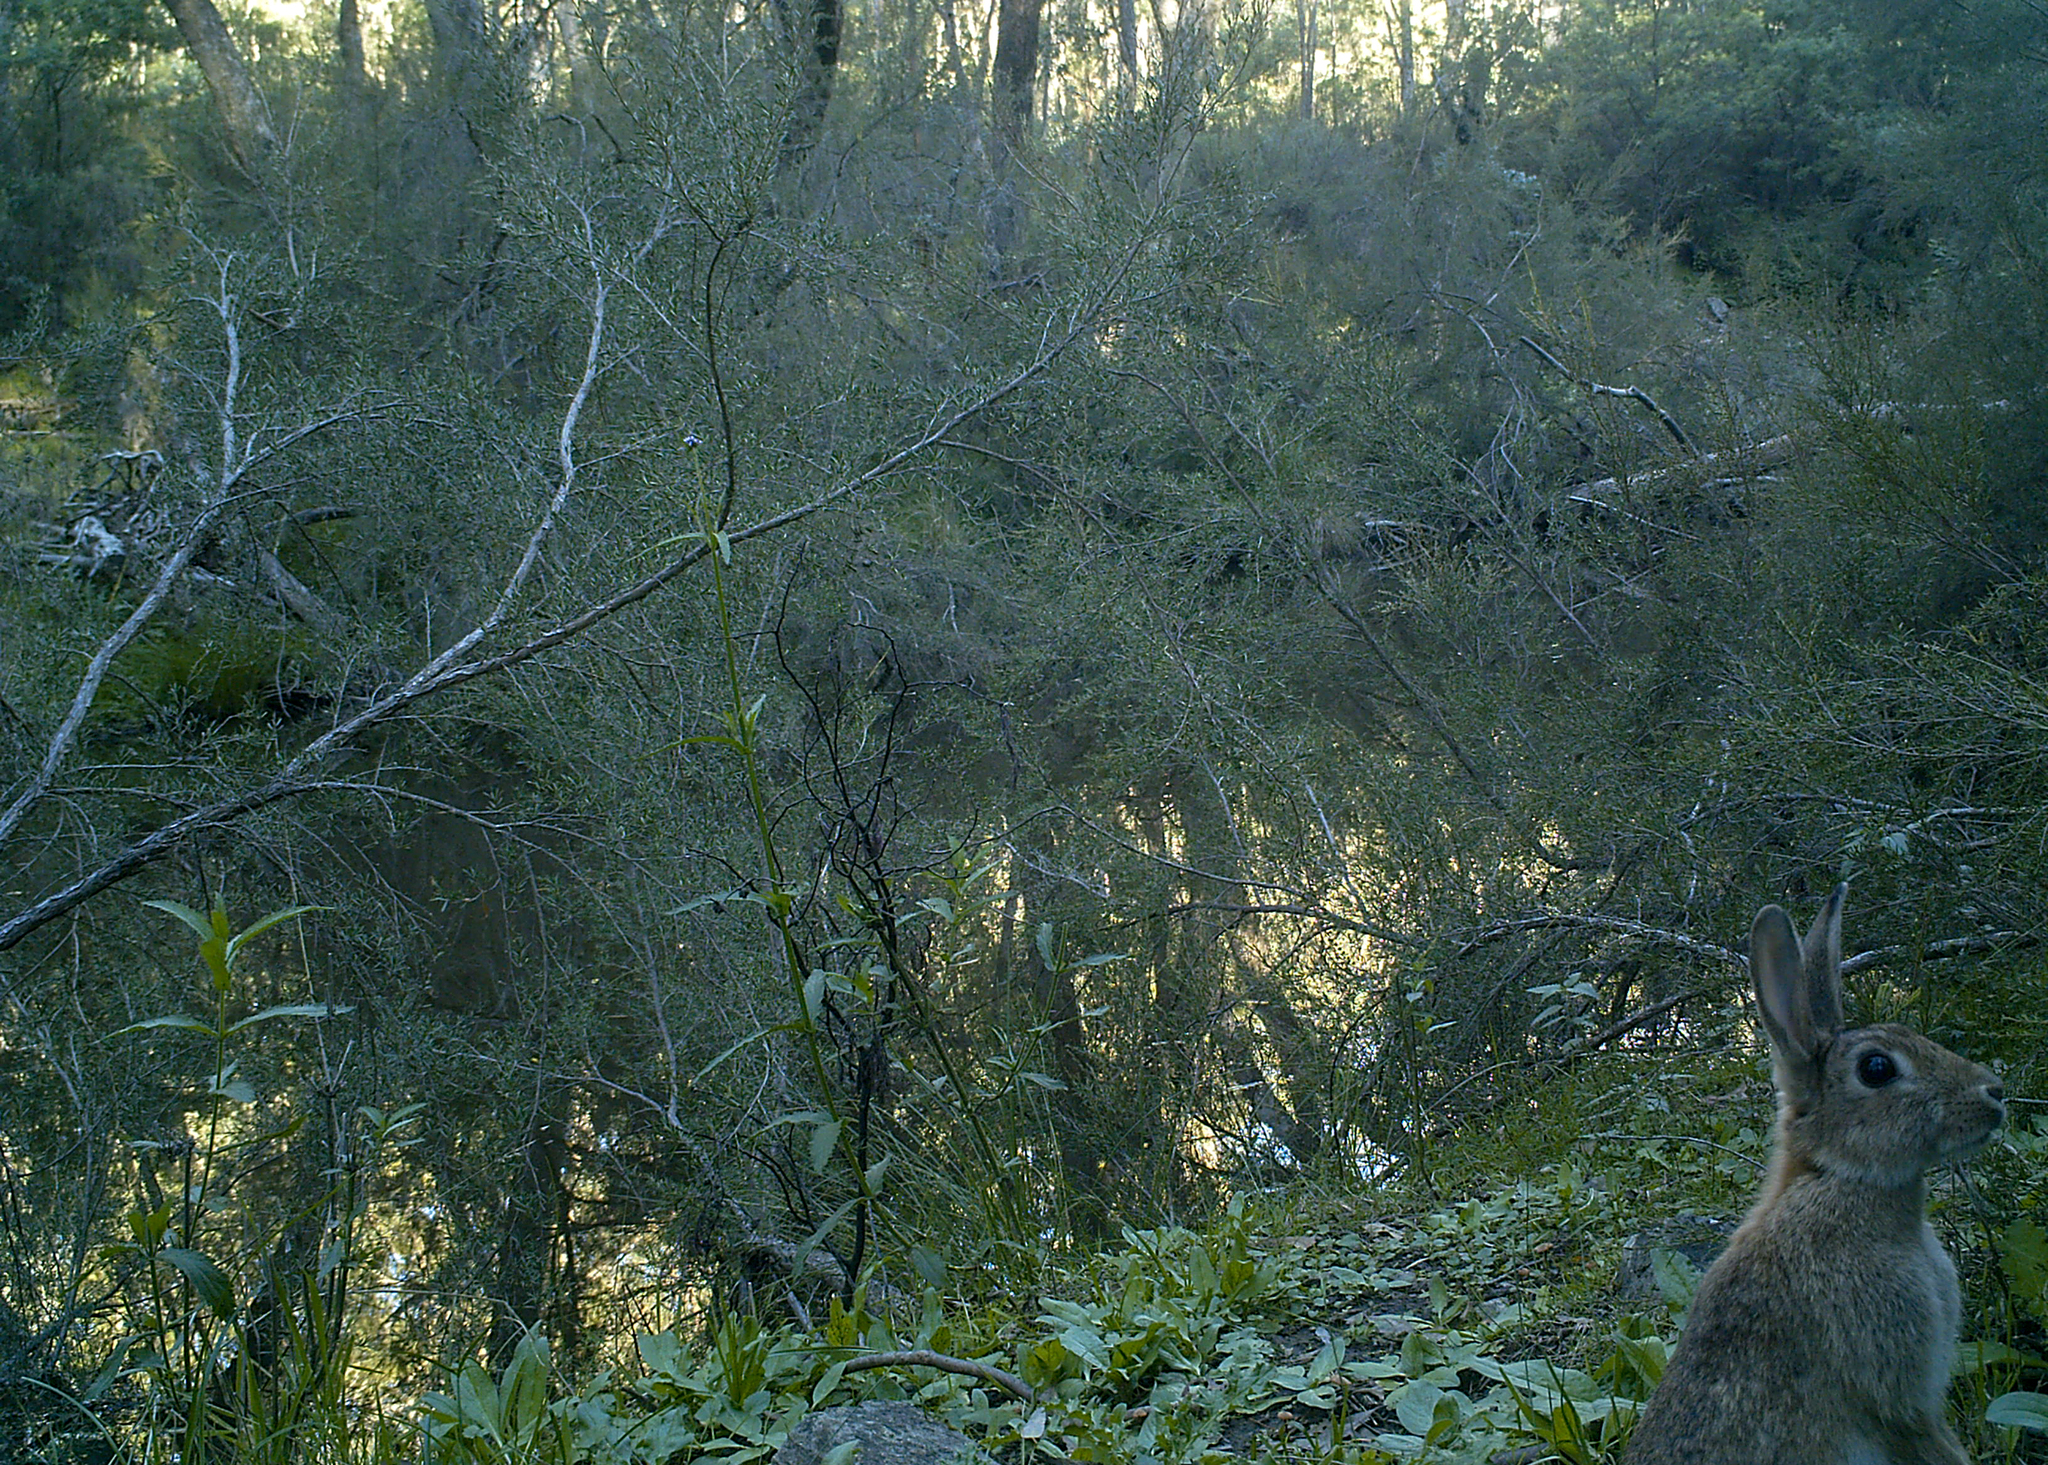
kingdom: Animalia
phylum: Chordata
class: Mammalia
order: Lagomorpha
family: Leporidae
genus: Oryctolagus
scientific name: Oryctolagus cuniculus
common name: European rabbit
